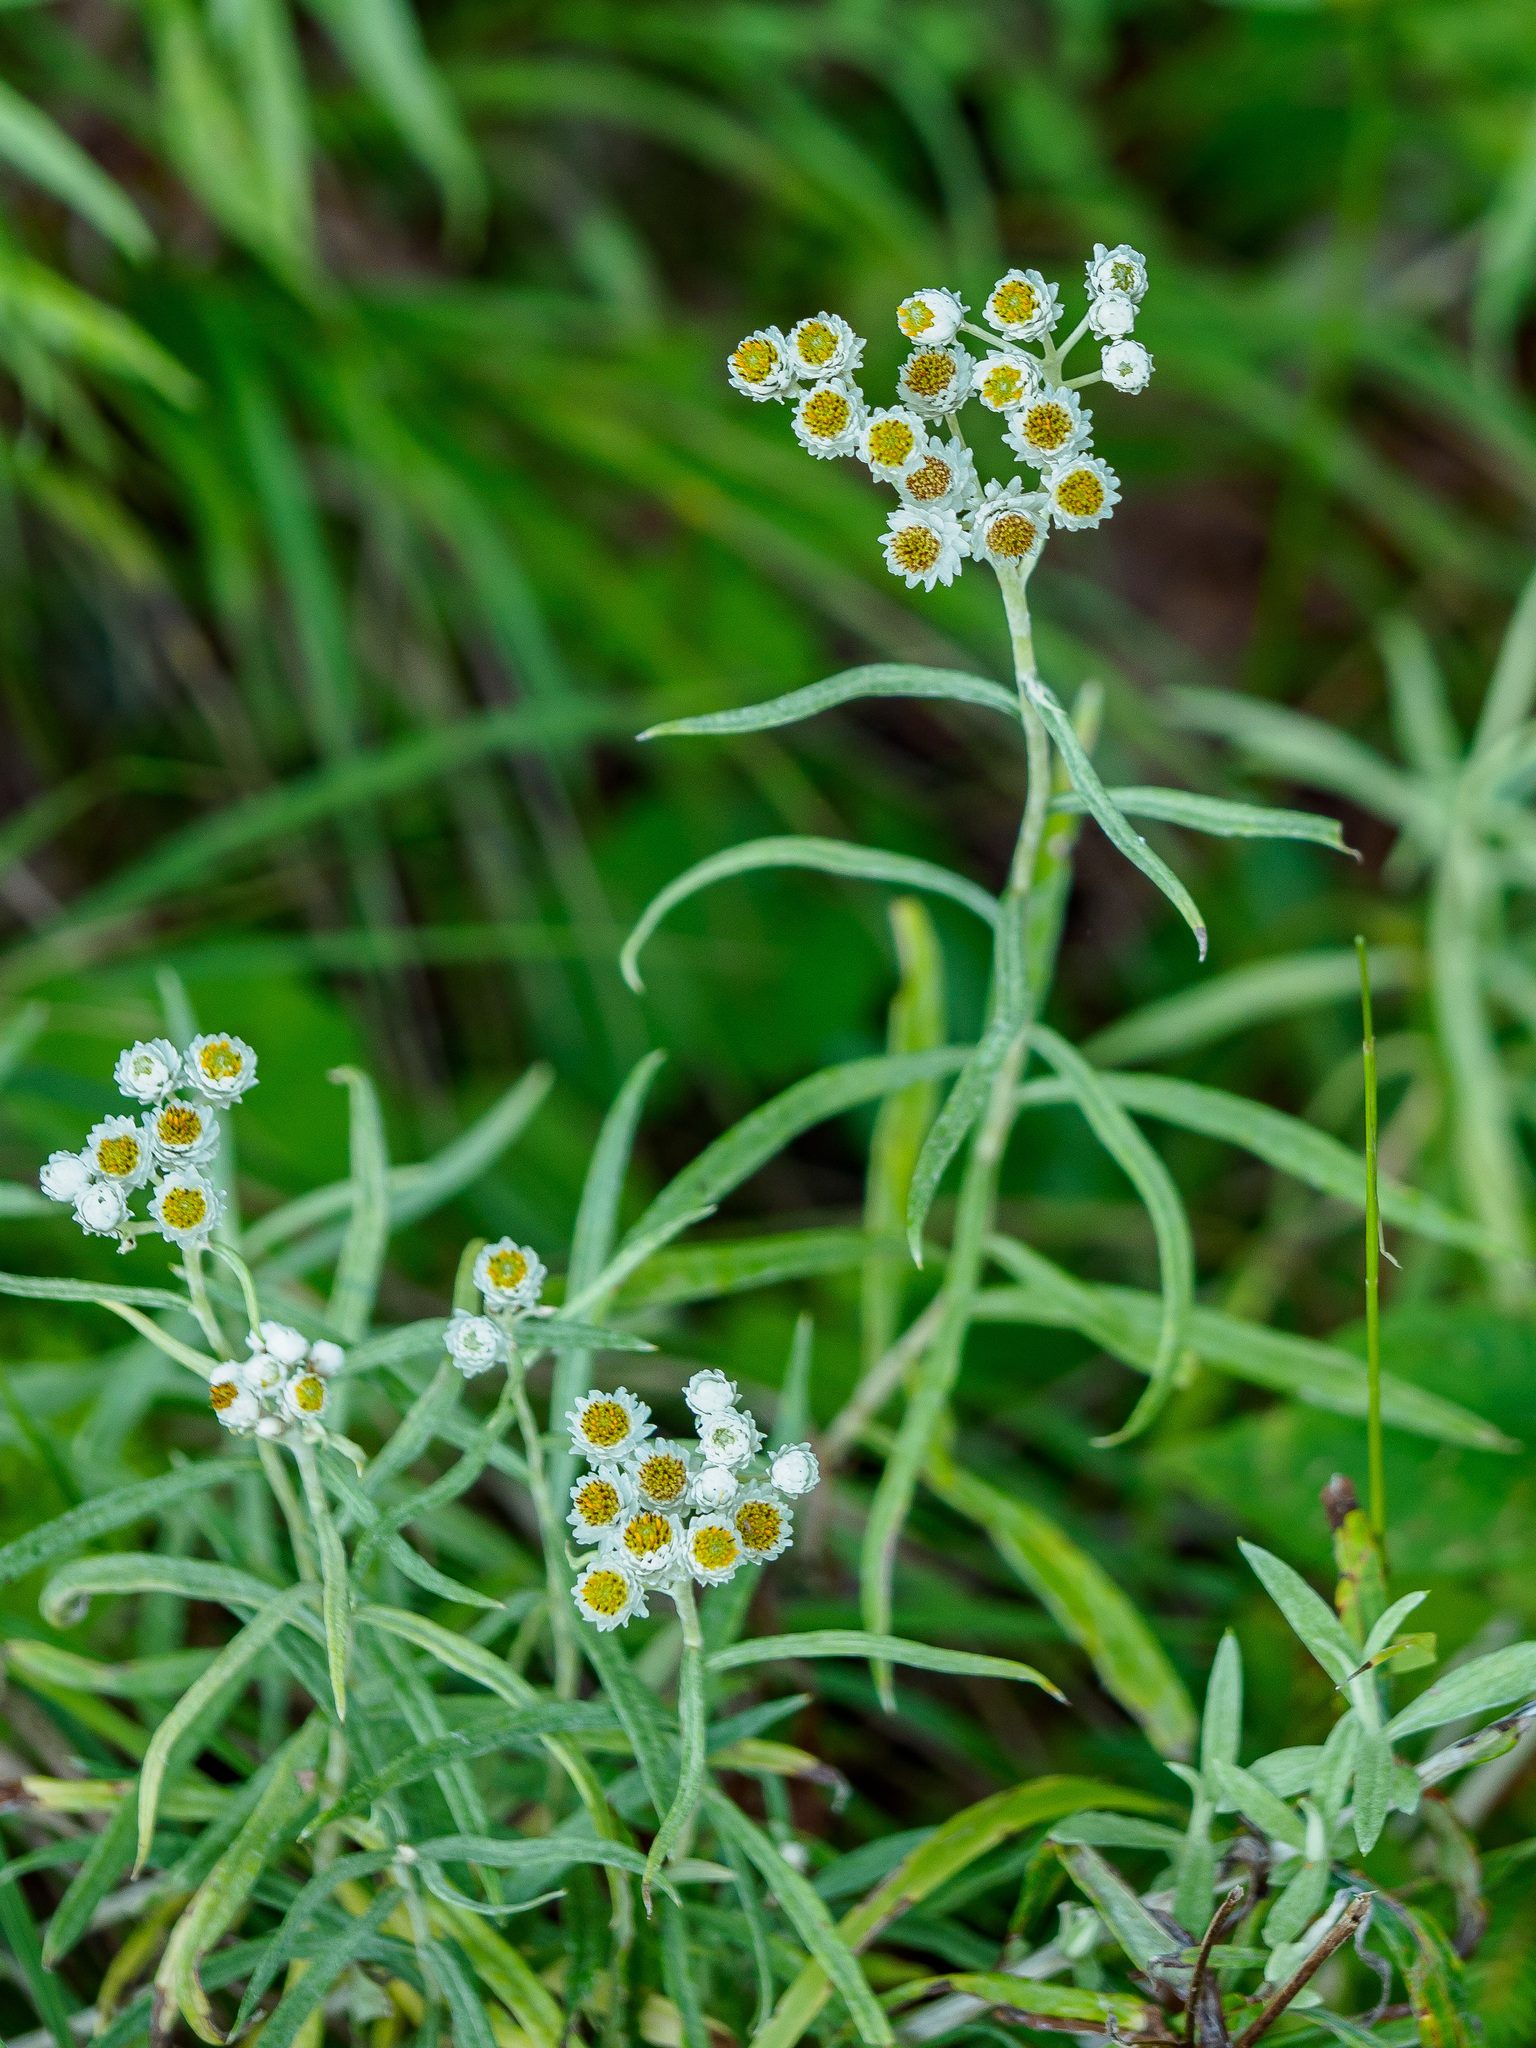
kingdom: Plantae
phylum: Tracheophyta
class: Magnoliopsida
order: Asterales
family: Asteraceae
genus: Anaphalis
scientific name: Anaphalis margaritacea
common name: Pearly everlasting
